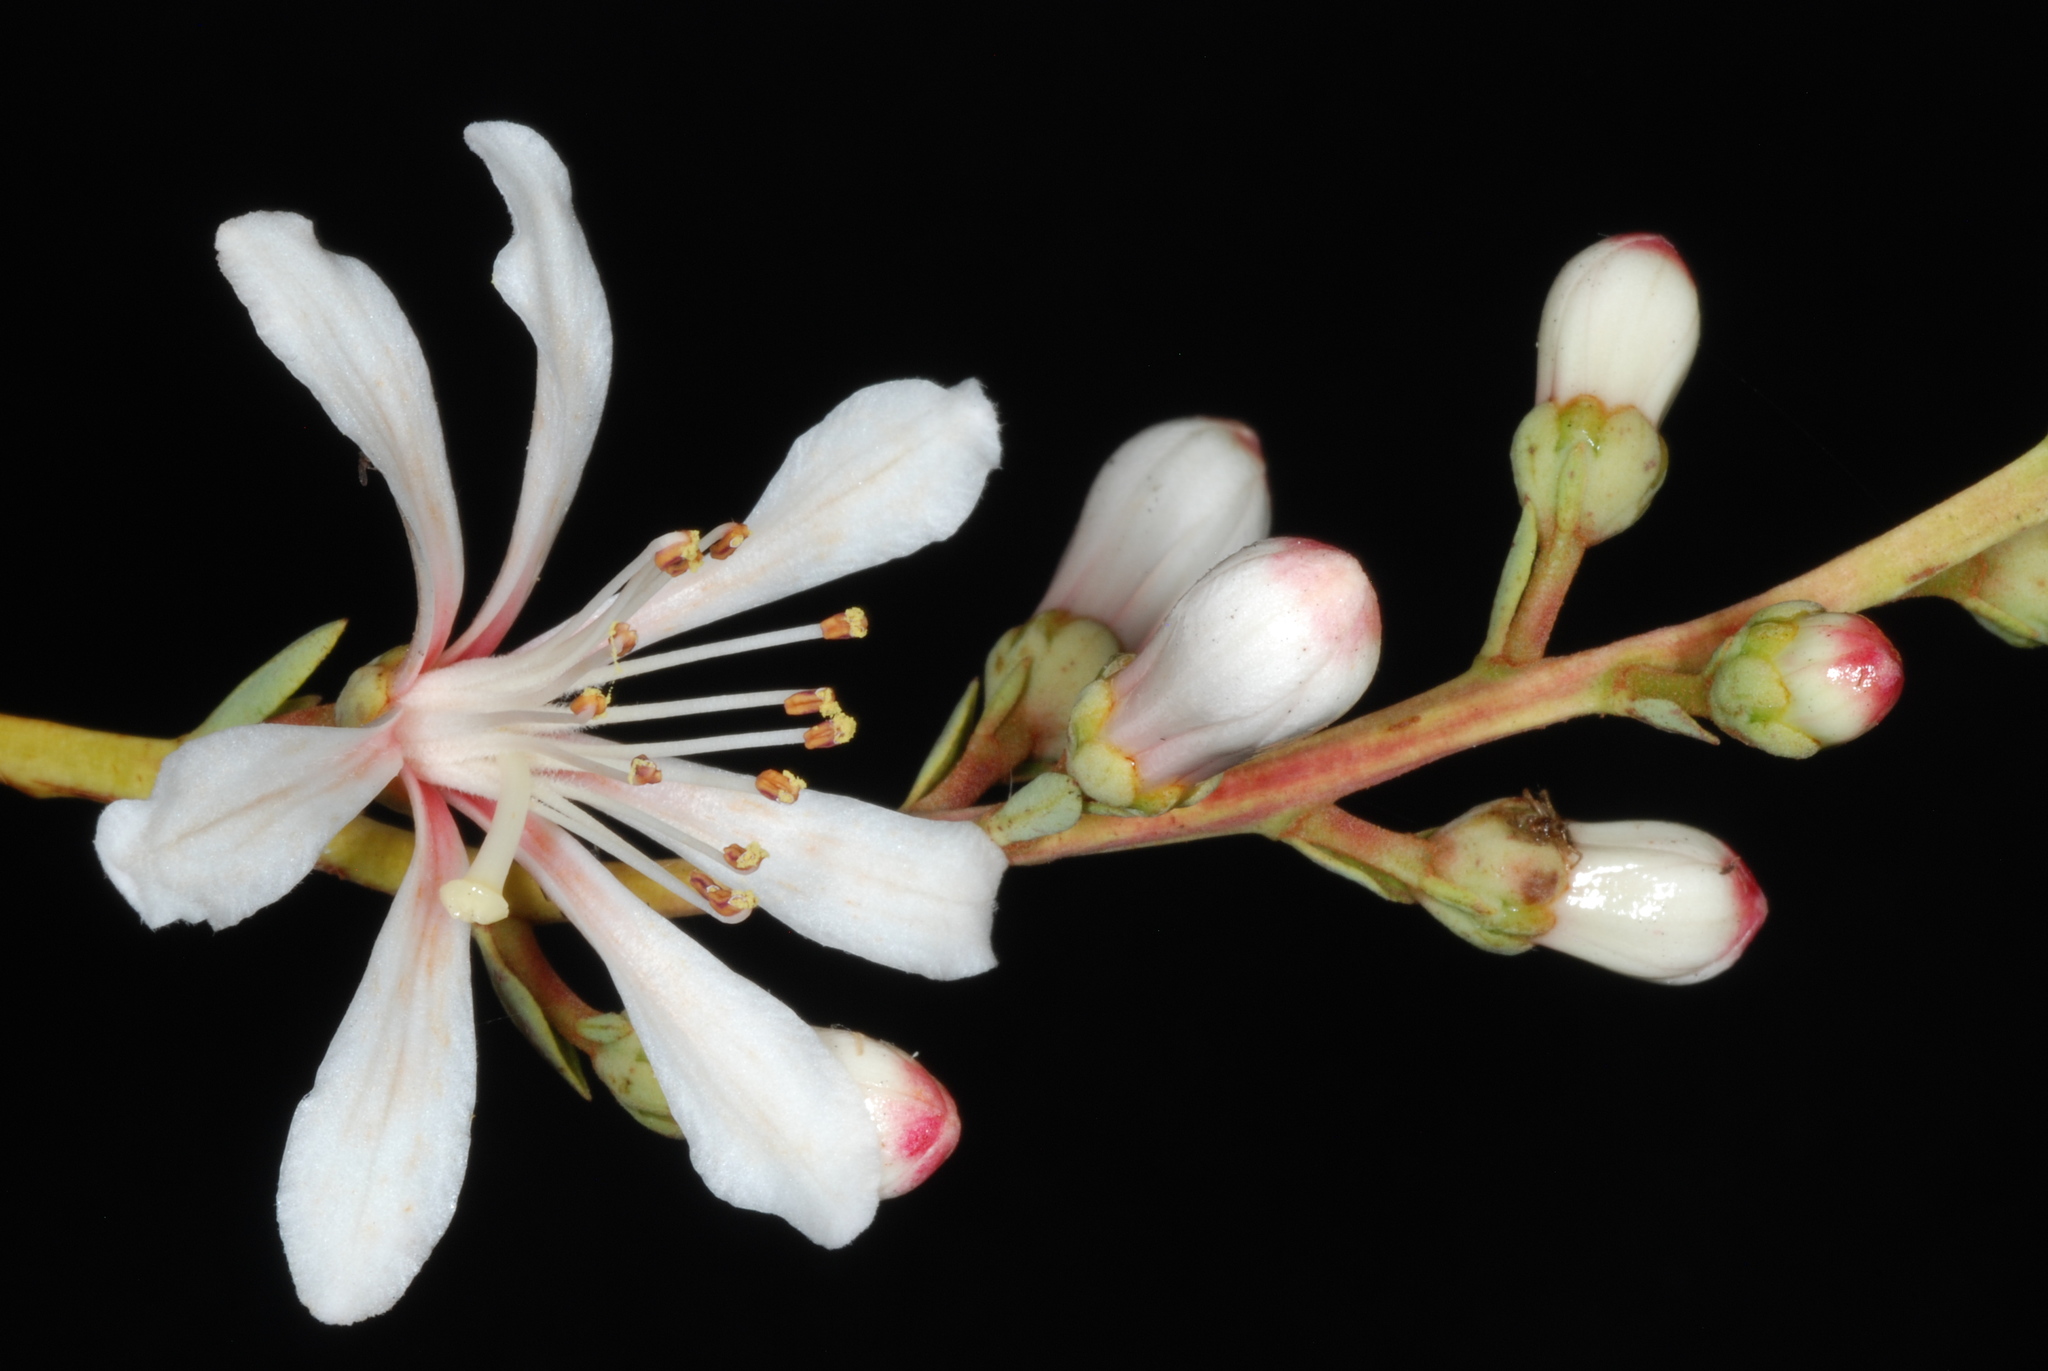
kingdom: Plantae
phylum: Tracheophyta
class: Magnoliopsida
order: Ericales
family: Ericaceae
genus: Bejaria
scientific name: Bejaria racemosa
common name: Tarflower
